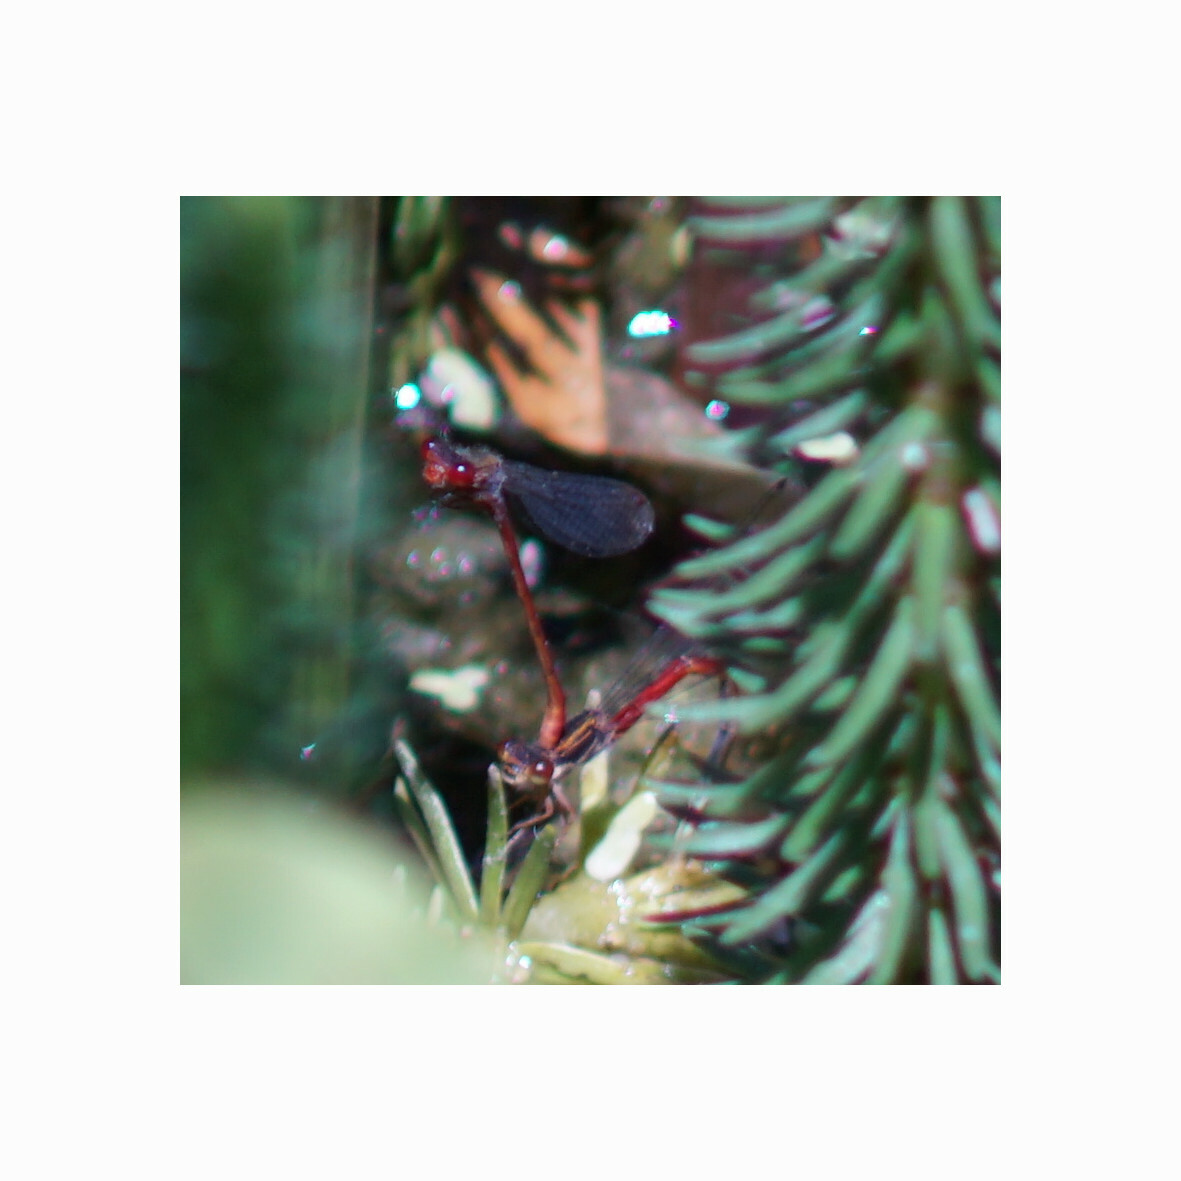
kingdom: Animalia
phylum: Arthropoda
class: Insecta
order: Odonata
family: Coenagrionidae
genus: Ceriagrion
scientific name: Ceriagrion tenellum
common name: Small red damselfly
